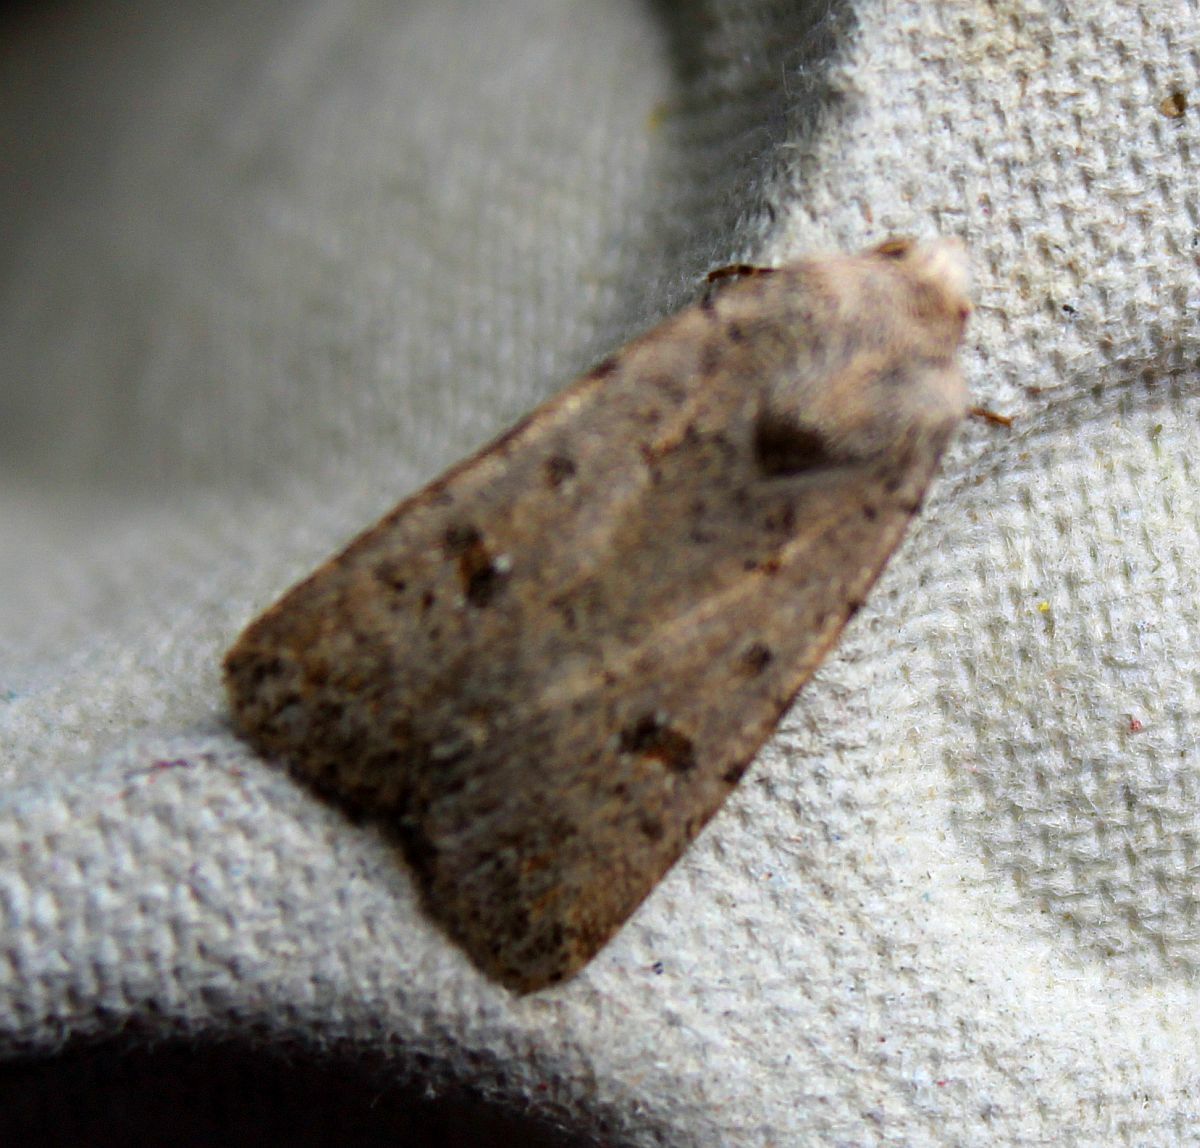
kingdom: Animalia
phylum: Arthropoda
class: Insecta
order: Lepidoptera
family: Noctuidae
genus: Caradrina
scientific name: Caradrina clavipalpis
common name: Pale mottled willow
